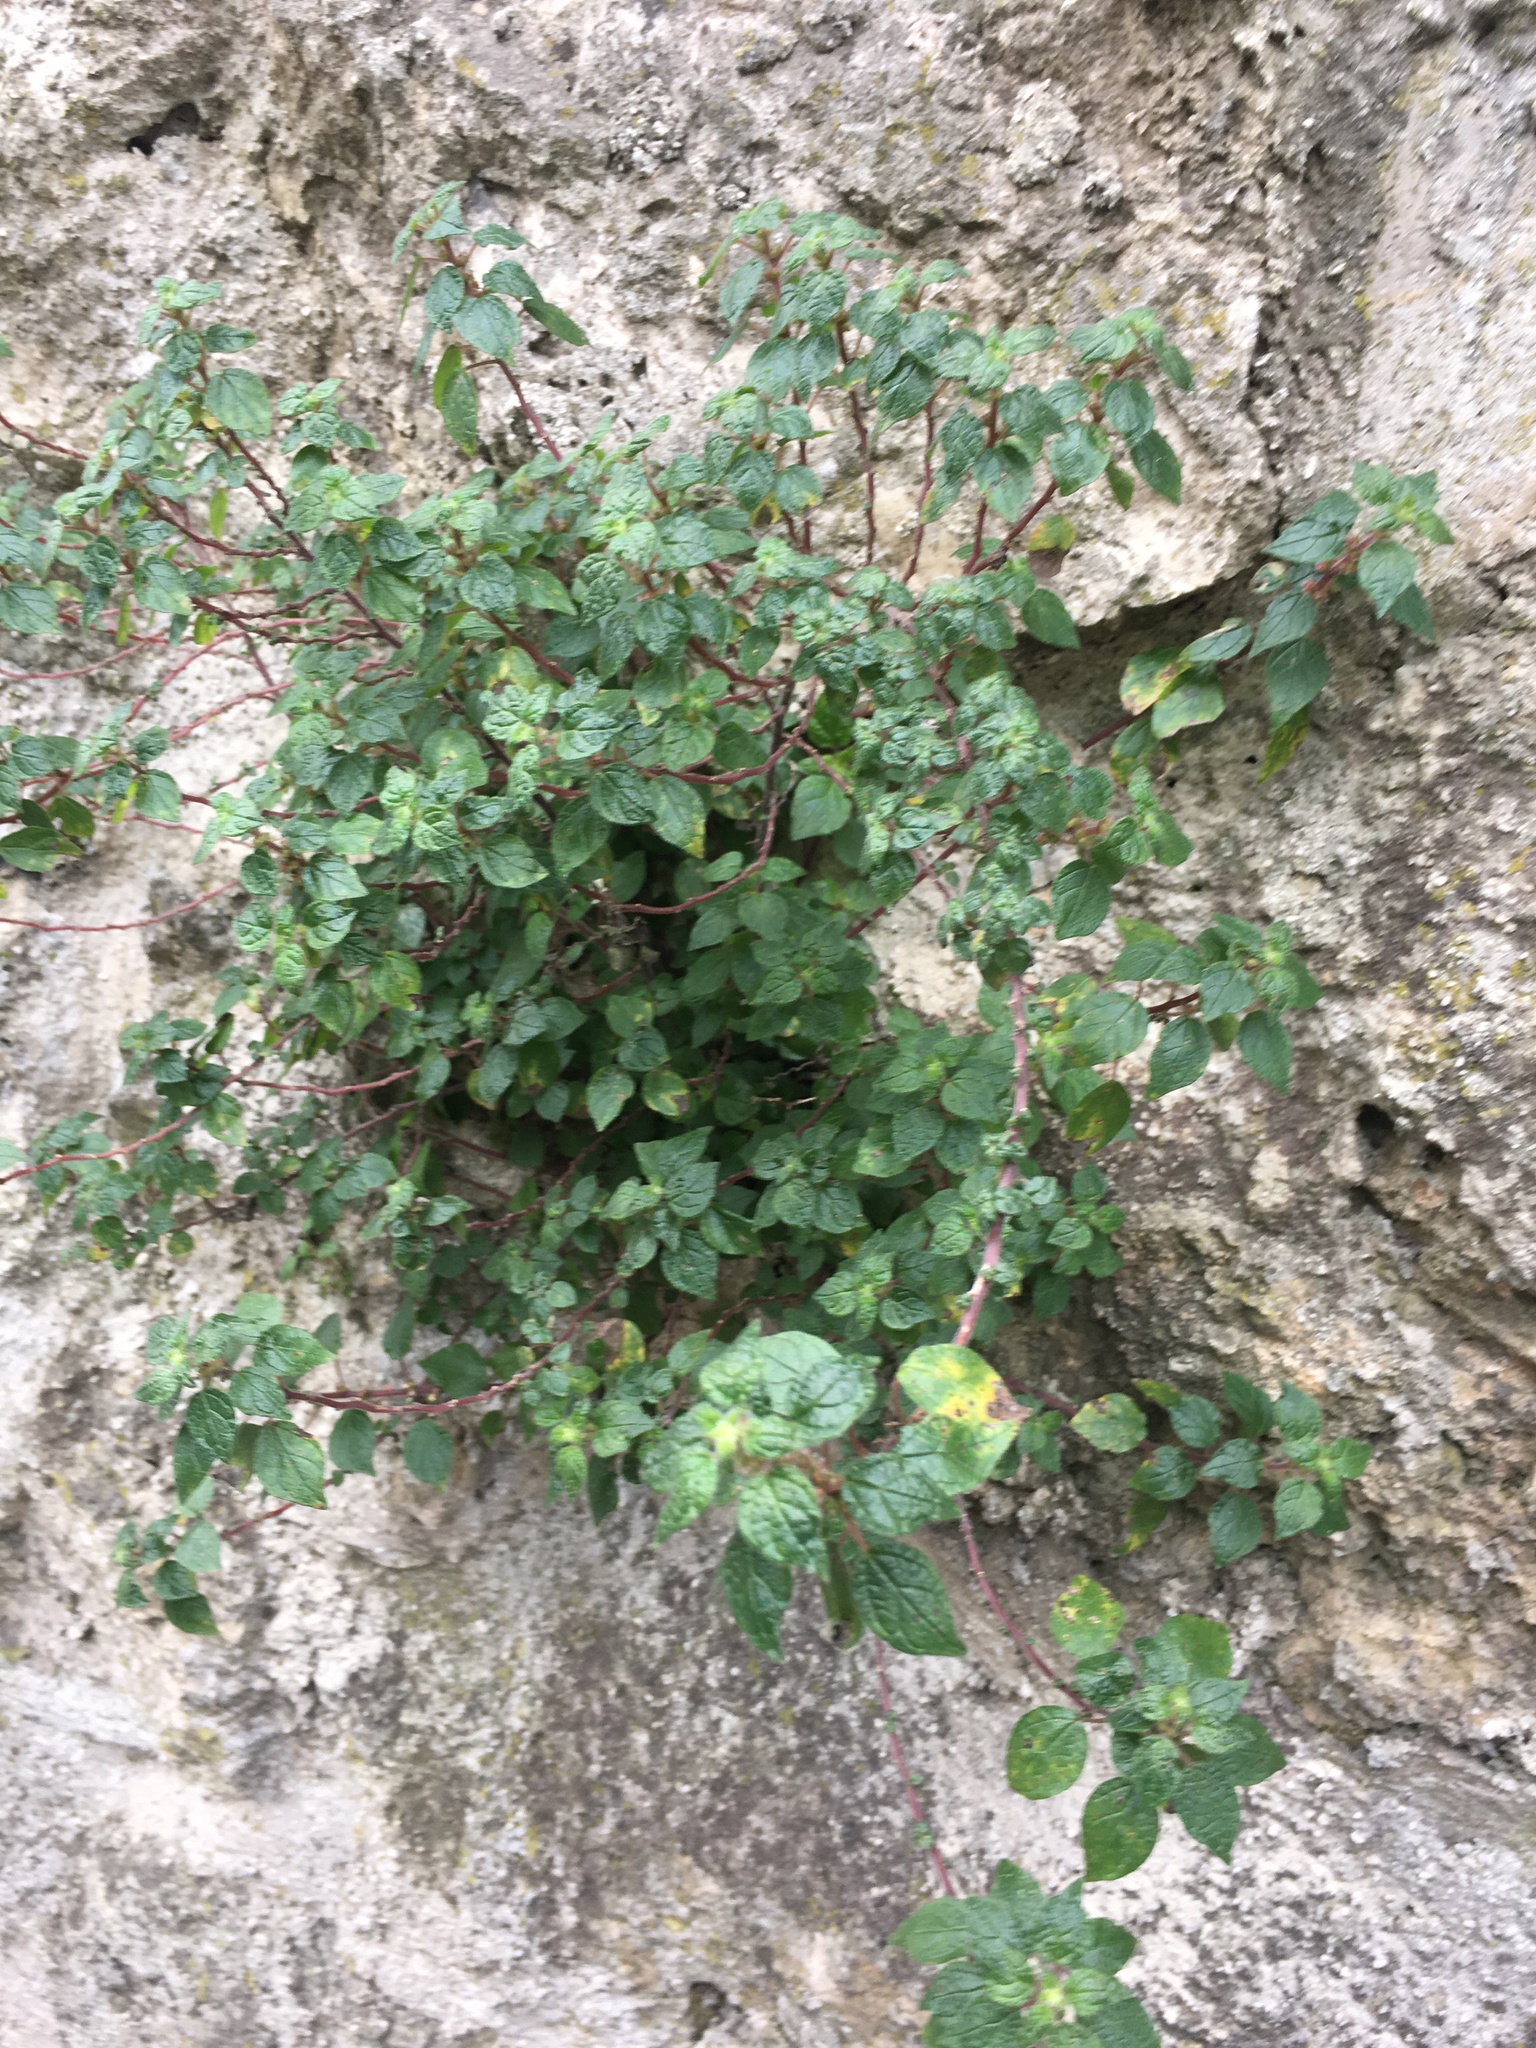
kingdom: Plantae
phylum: Tracheophyta
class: Magnoliopsida
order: Rosales
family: Urticaceae
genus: Parietaria
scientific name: Parietaria judaica
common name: Pellitory-of-the-wall
